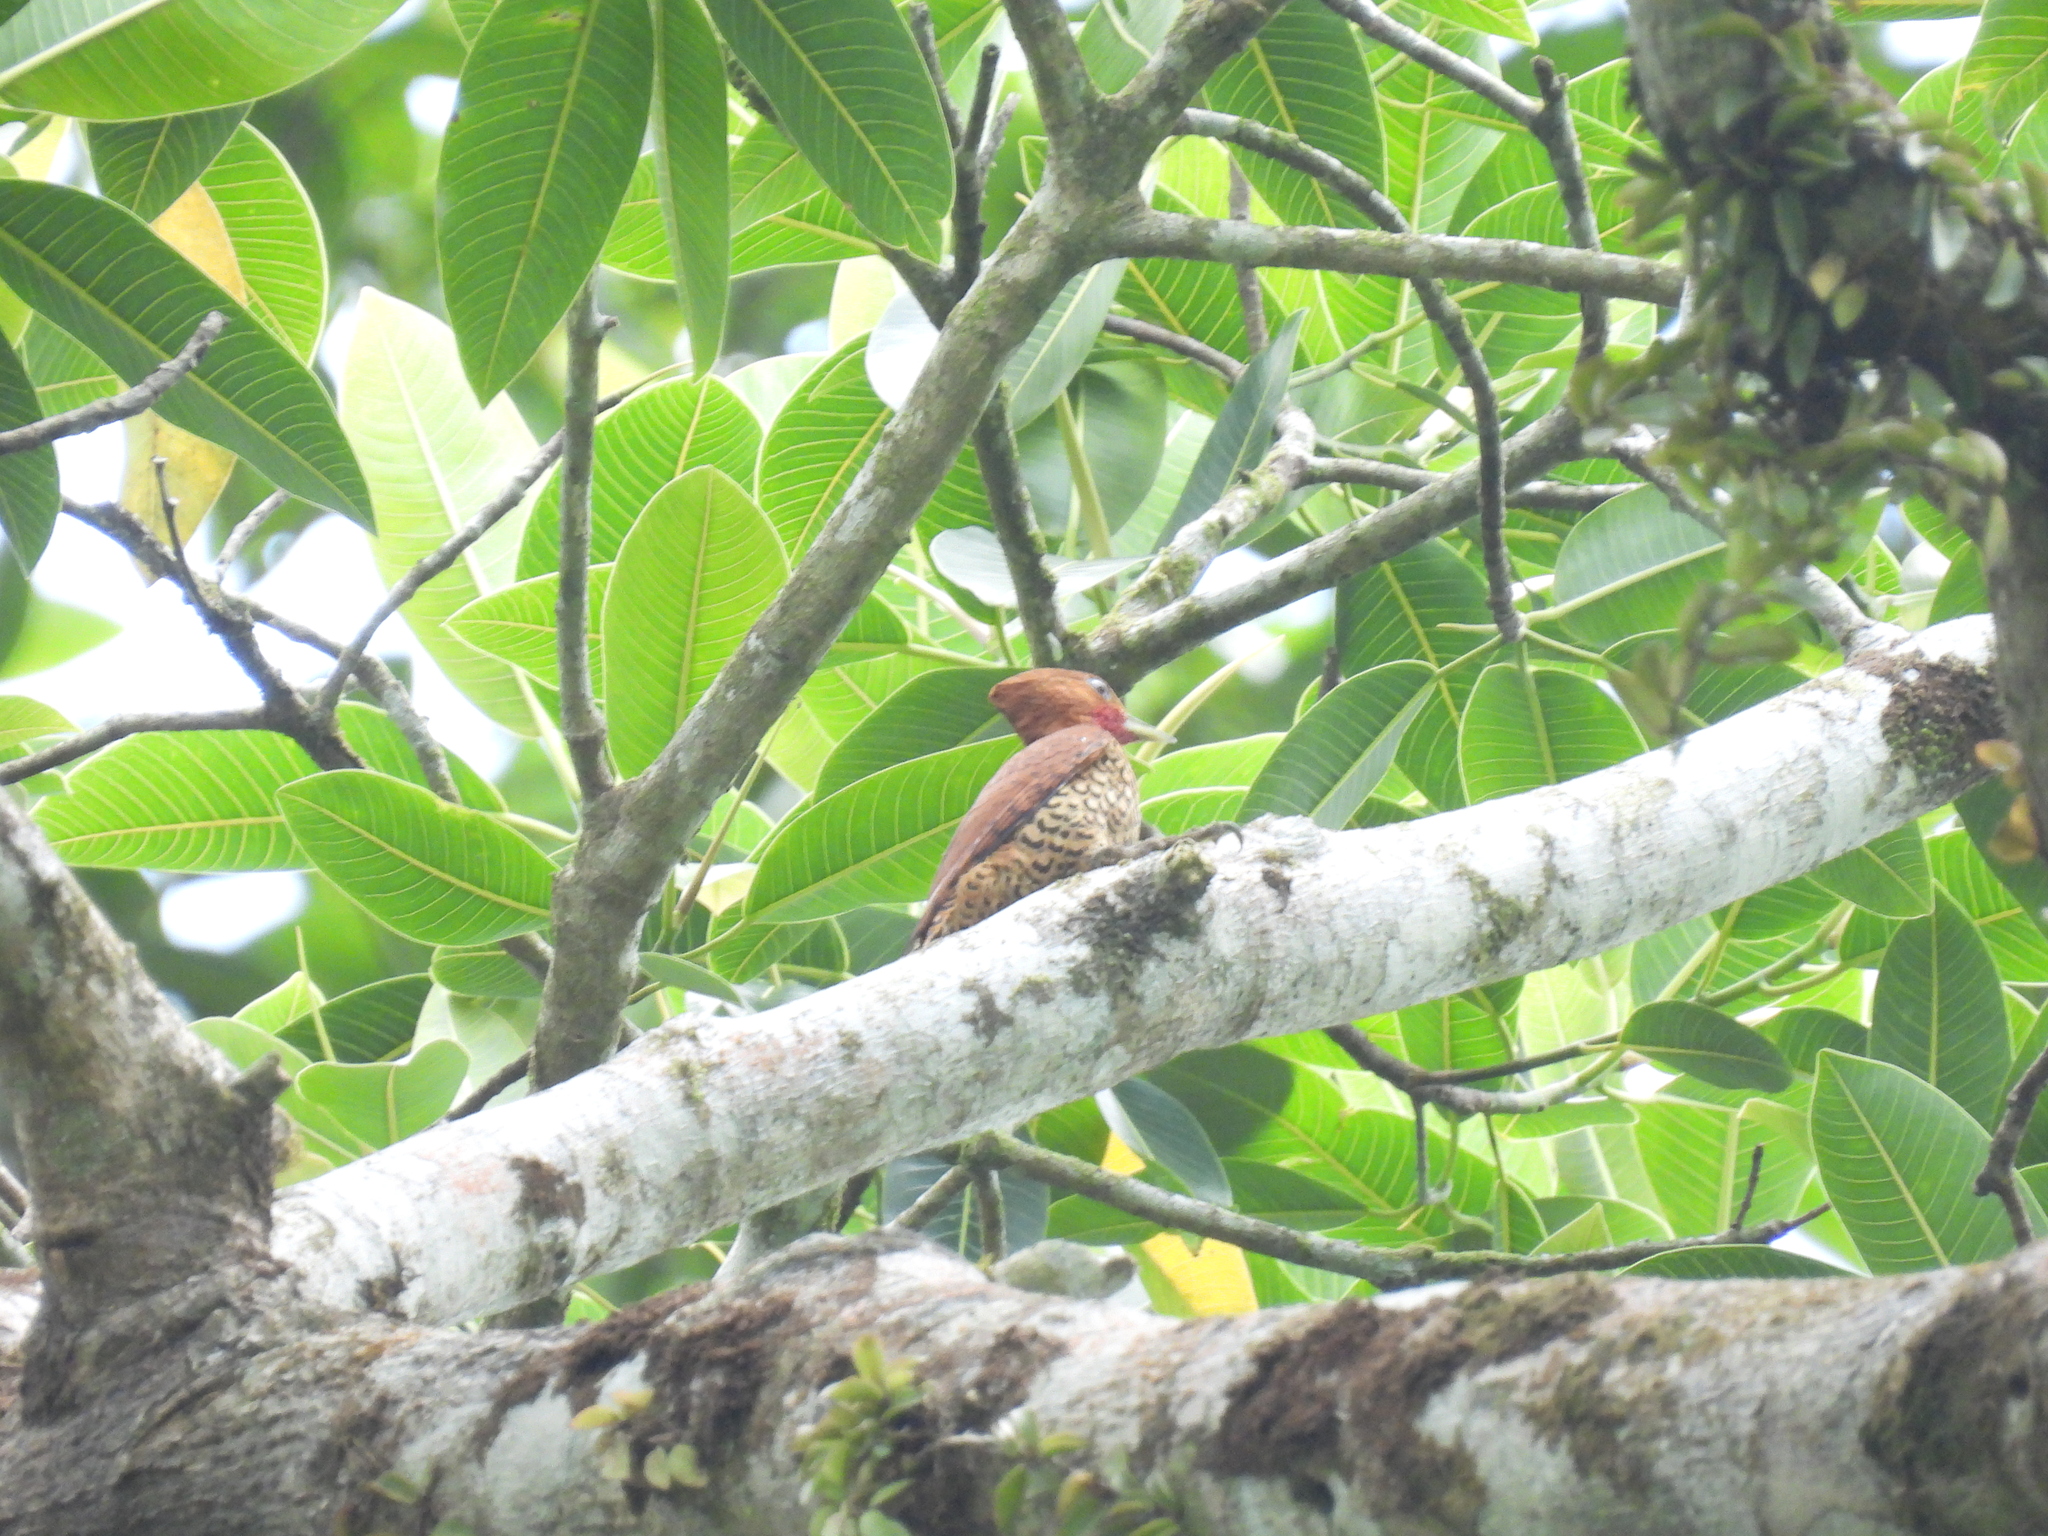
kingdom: Animalia
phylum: Chordata
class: Aves
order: Piciformes
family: Picidae
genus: Celeus
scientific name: Celeus loricatus
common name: Cinnamon woodpecker
